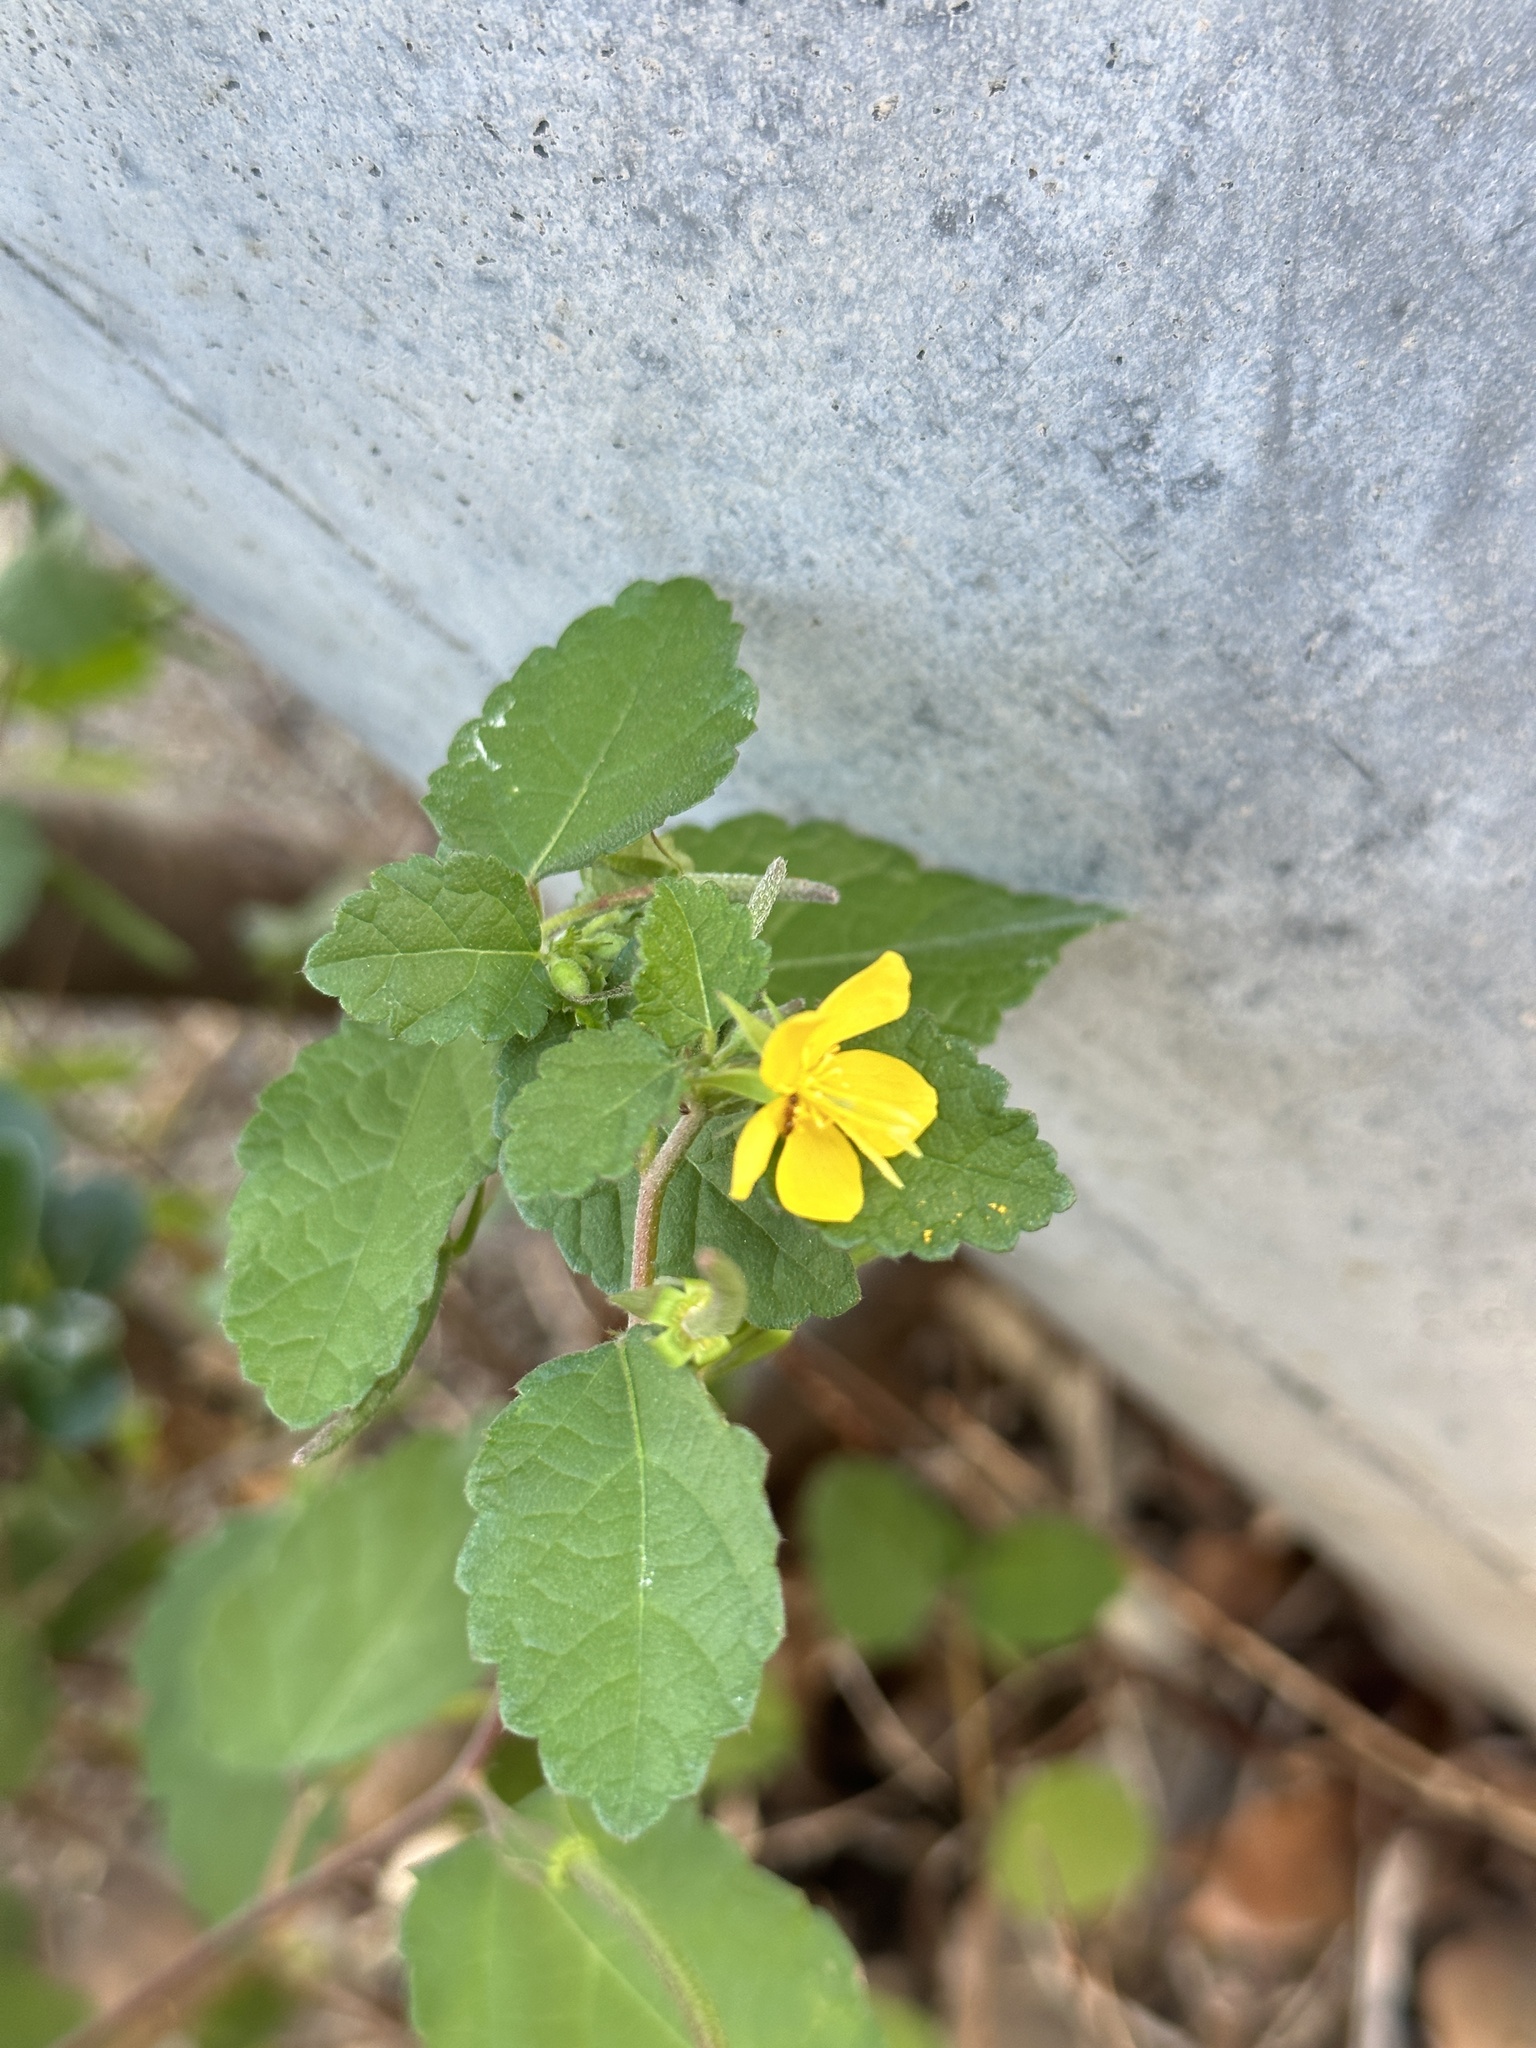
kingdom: Plantae
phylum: Tracheophyta
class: Magnoliopsida
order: Malvales
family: Malvaceae
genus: Corchoropsis
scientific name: Corchoropsis crenata
